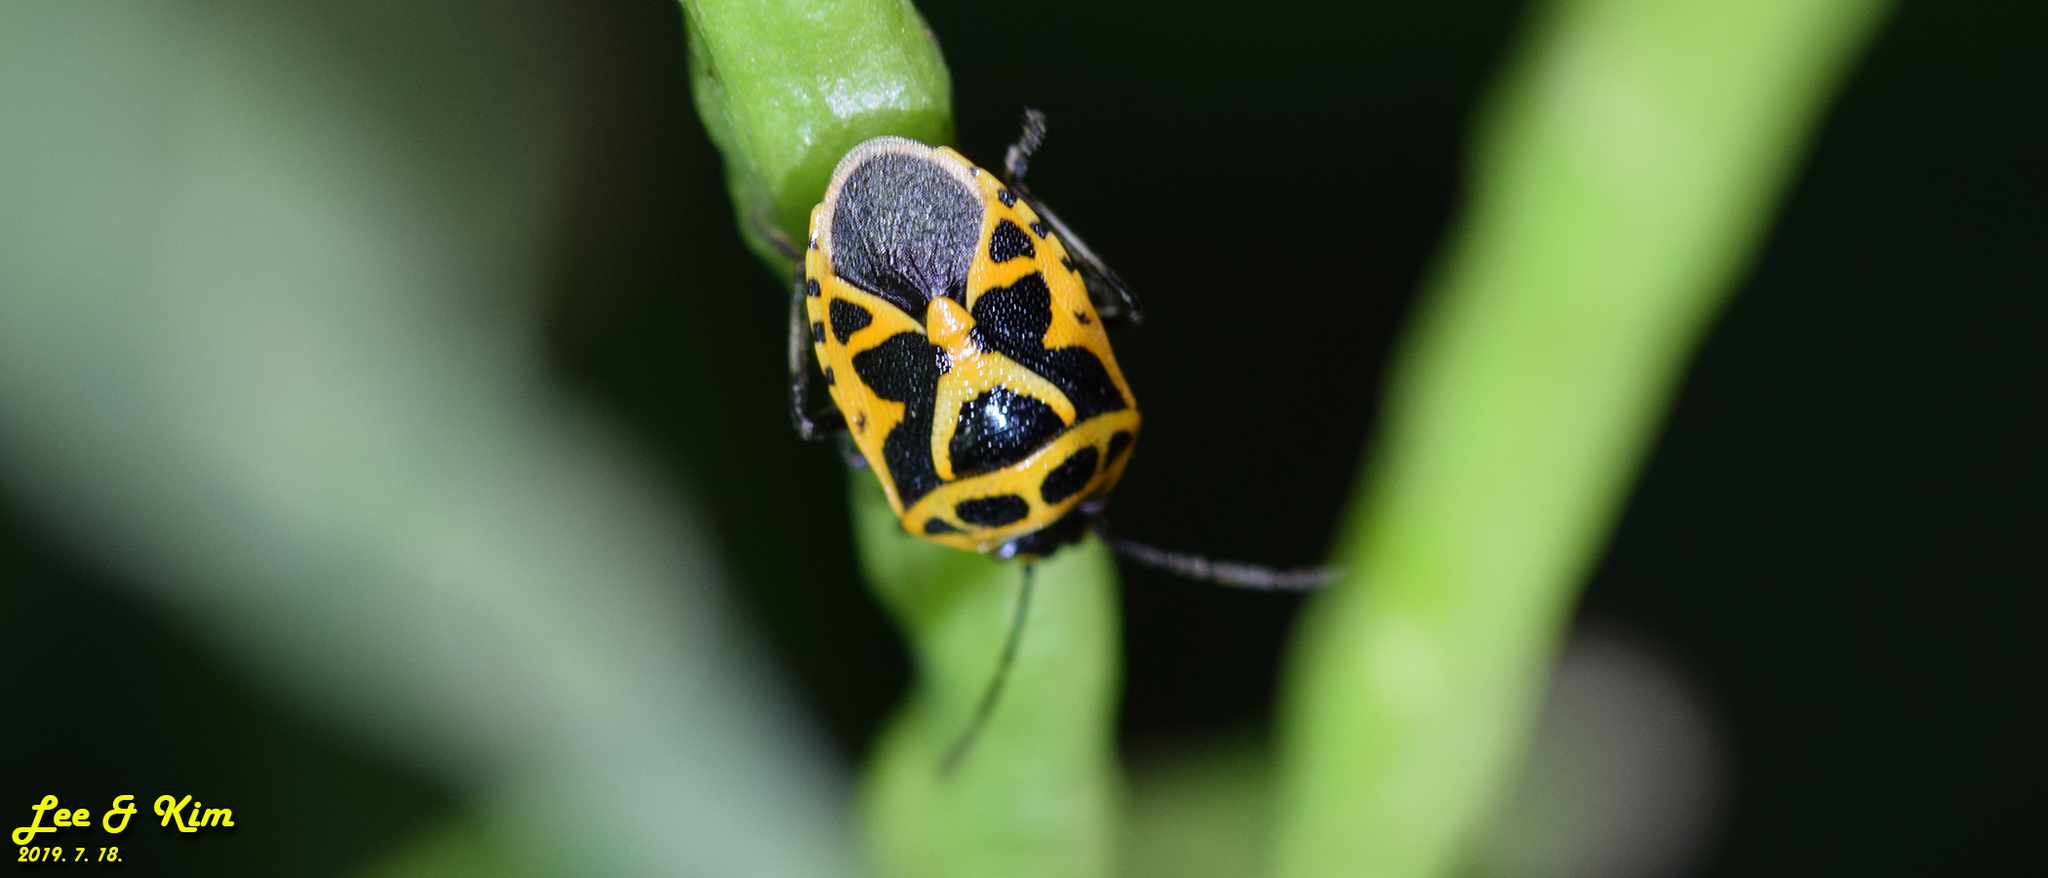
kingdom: Animalia
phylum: Arthropoda
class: Insecta
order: Hemiptera
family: Pentatomidae
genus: Eurydema
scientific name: Eurydema dominulus
